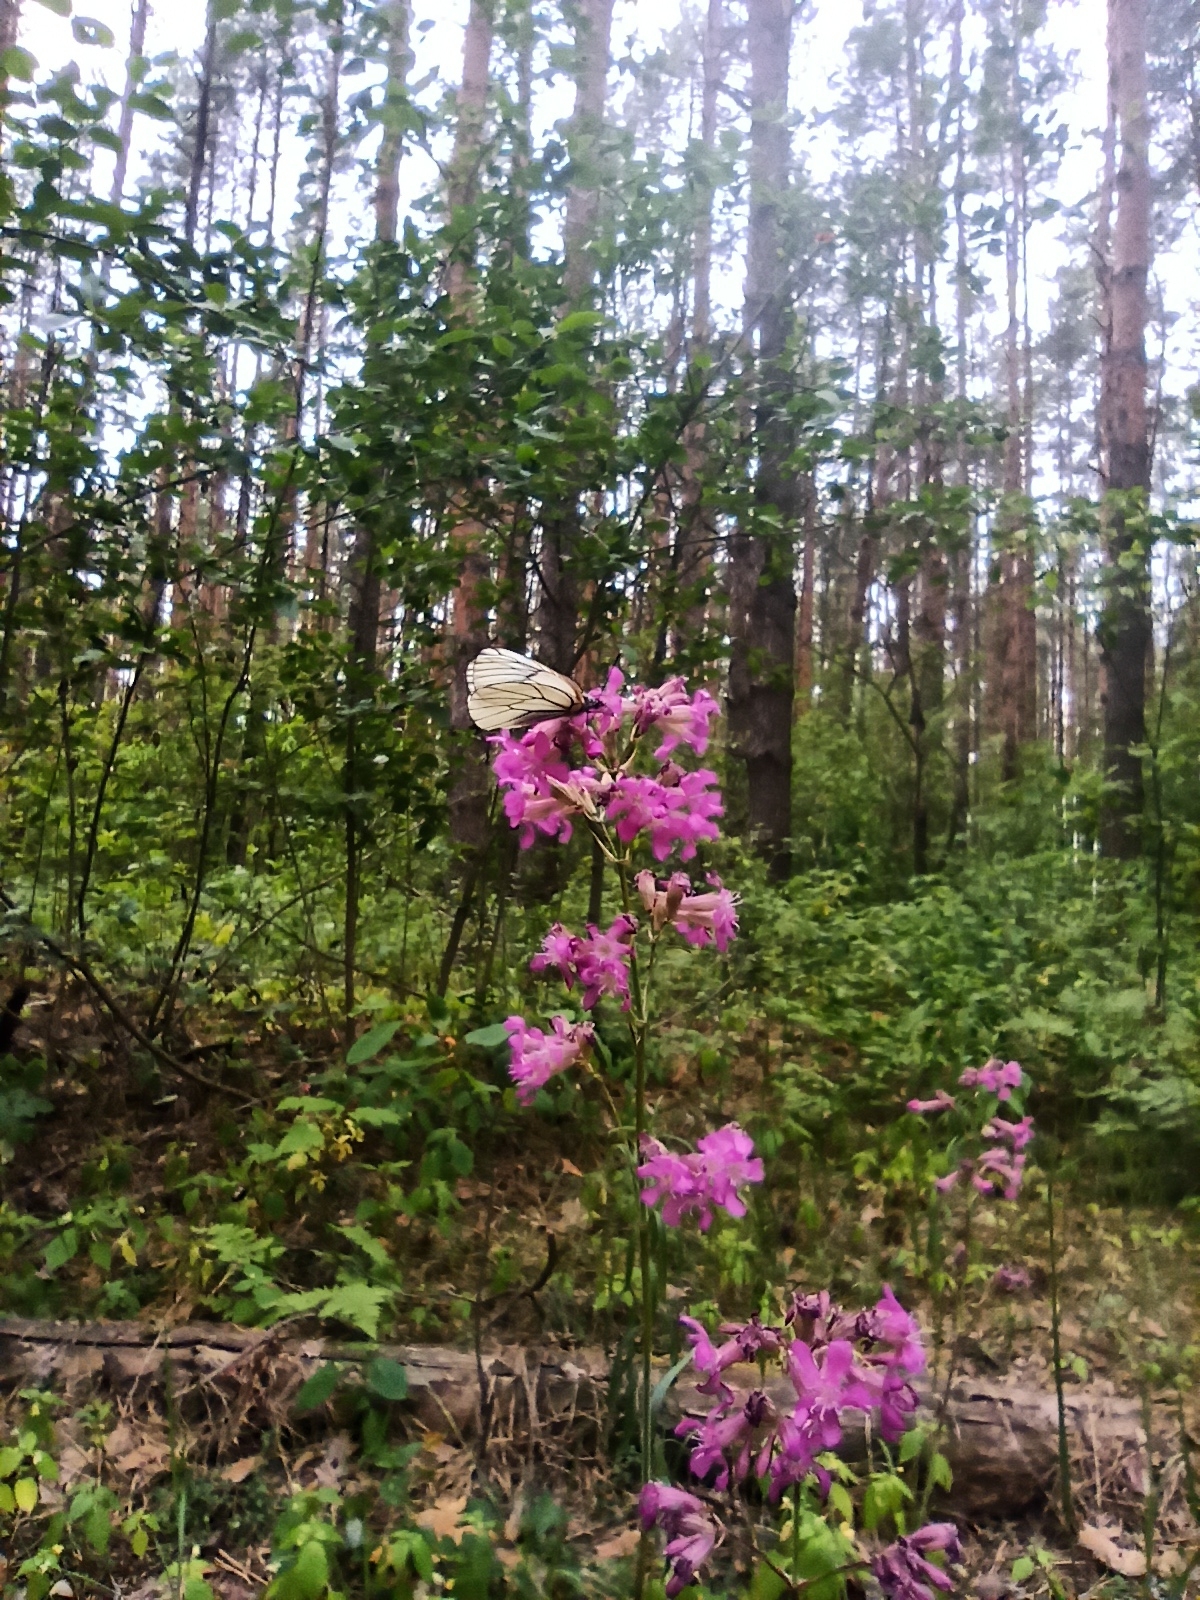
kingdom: Plantae
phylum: Tracheophyta
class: Magnoliopsida
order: Caryophyllales
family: Caryophyllaceae
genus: Viscaria
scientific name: Viscaria vulgaris
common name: Clammy campion
